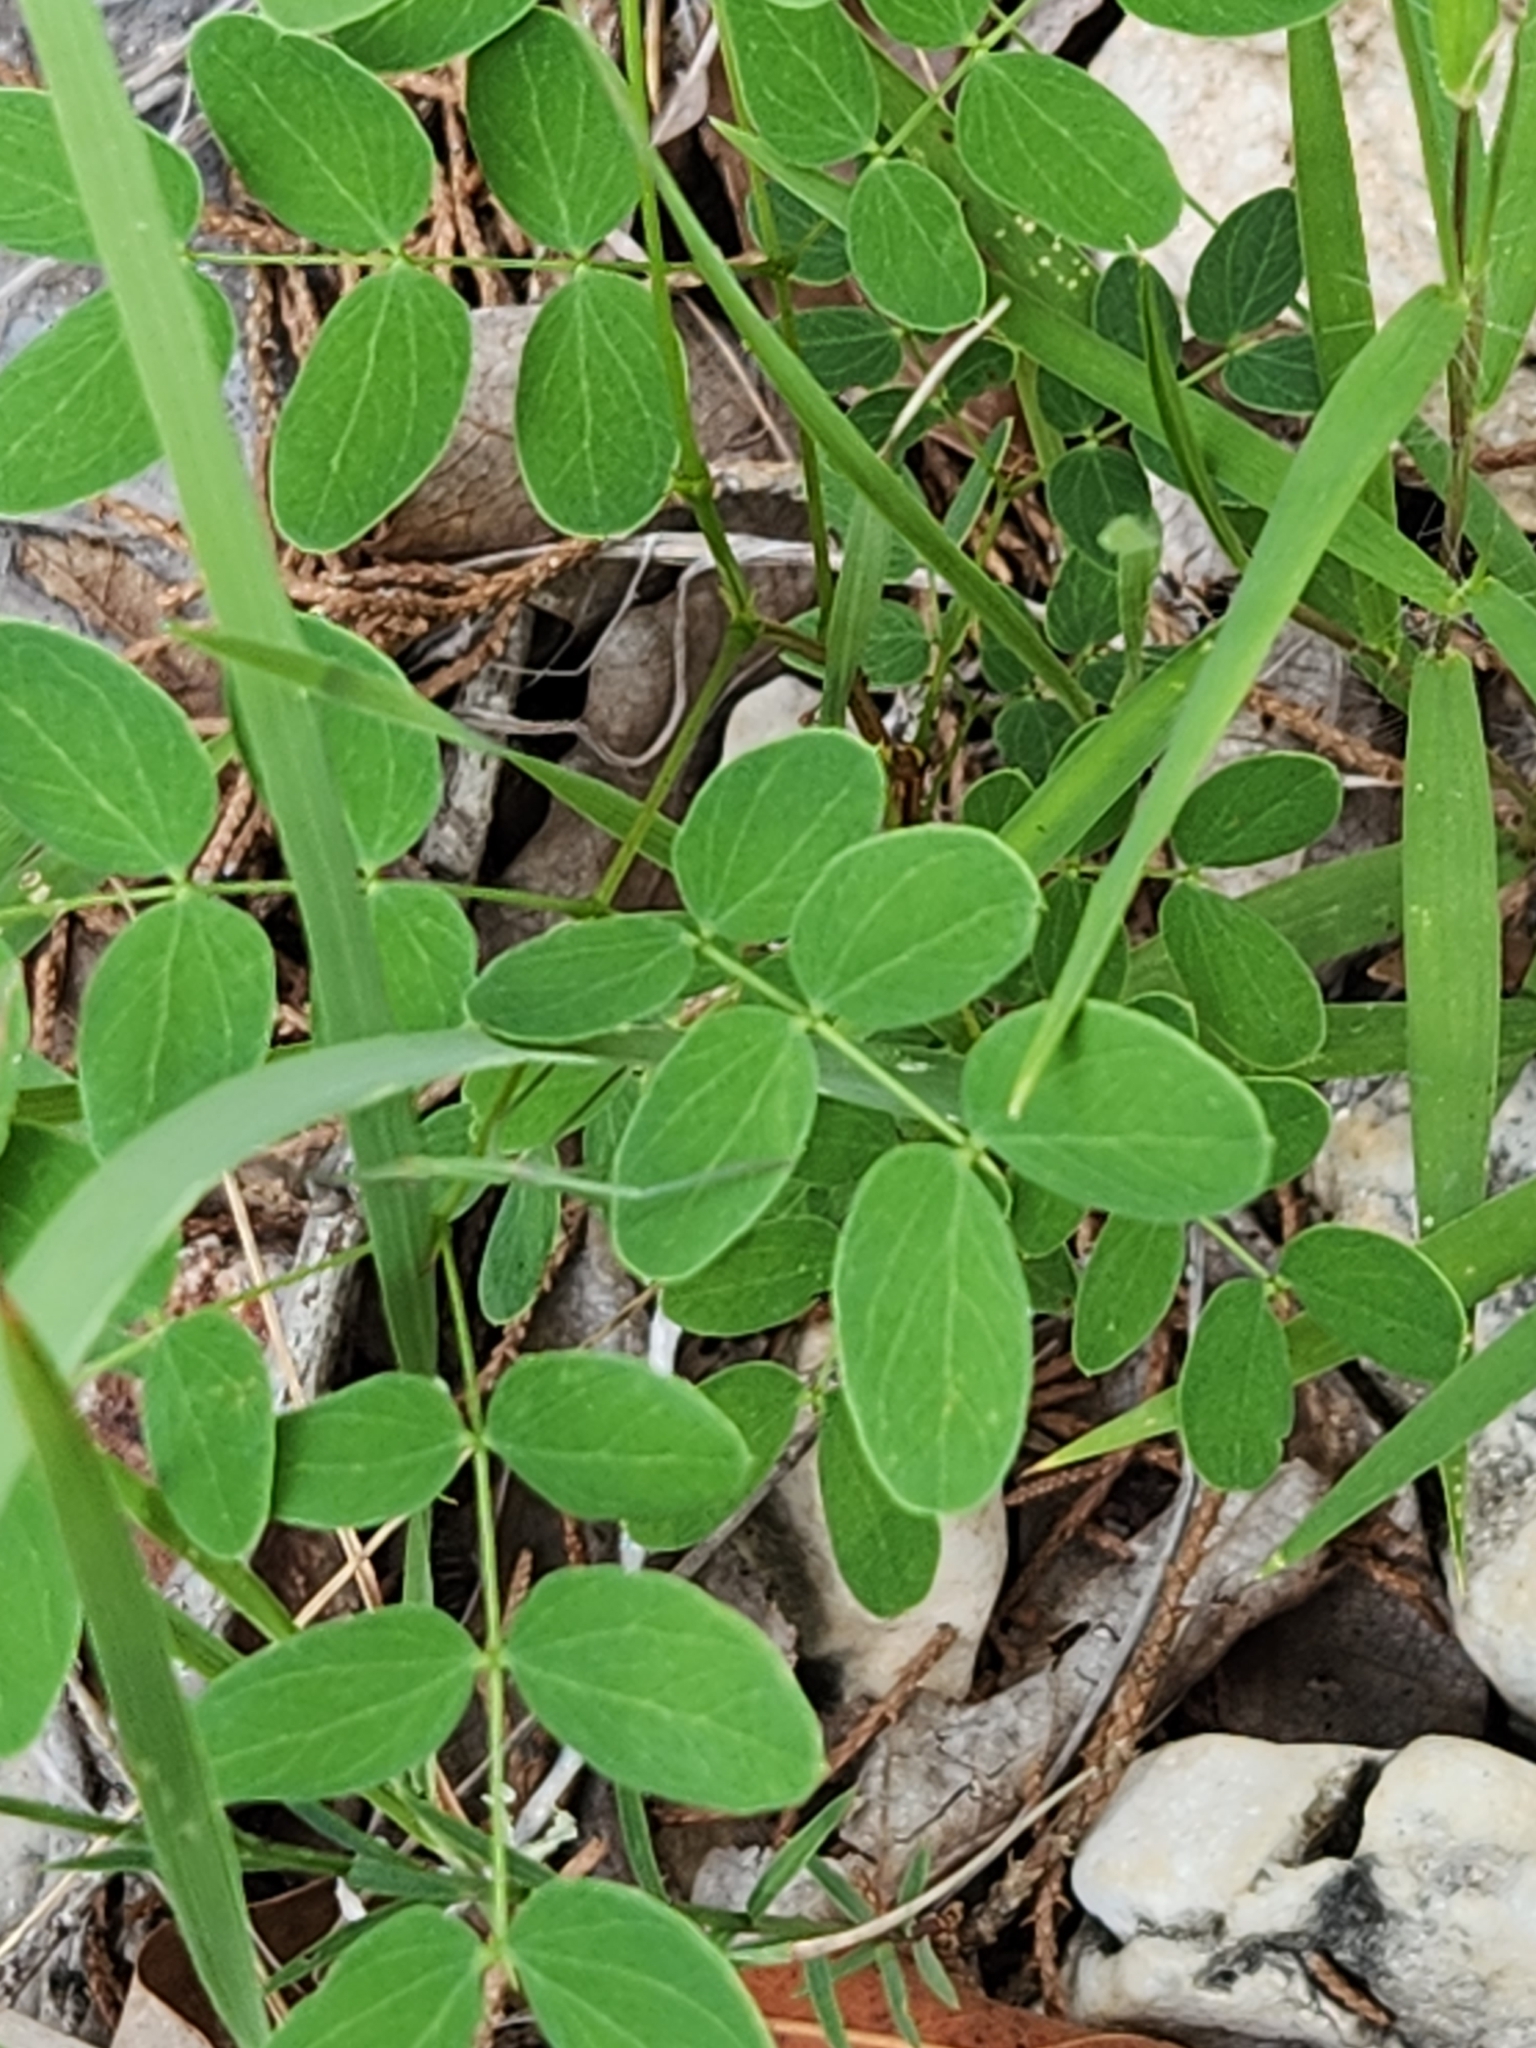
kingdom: Plantae
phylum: Tracheophyta
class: Magnoliopsida
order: Fabales
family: Fabaceae
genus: Leucaena
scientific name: Leucaena retusa
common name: Littleleaf leadtree
